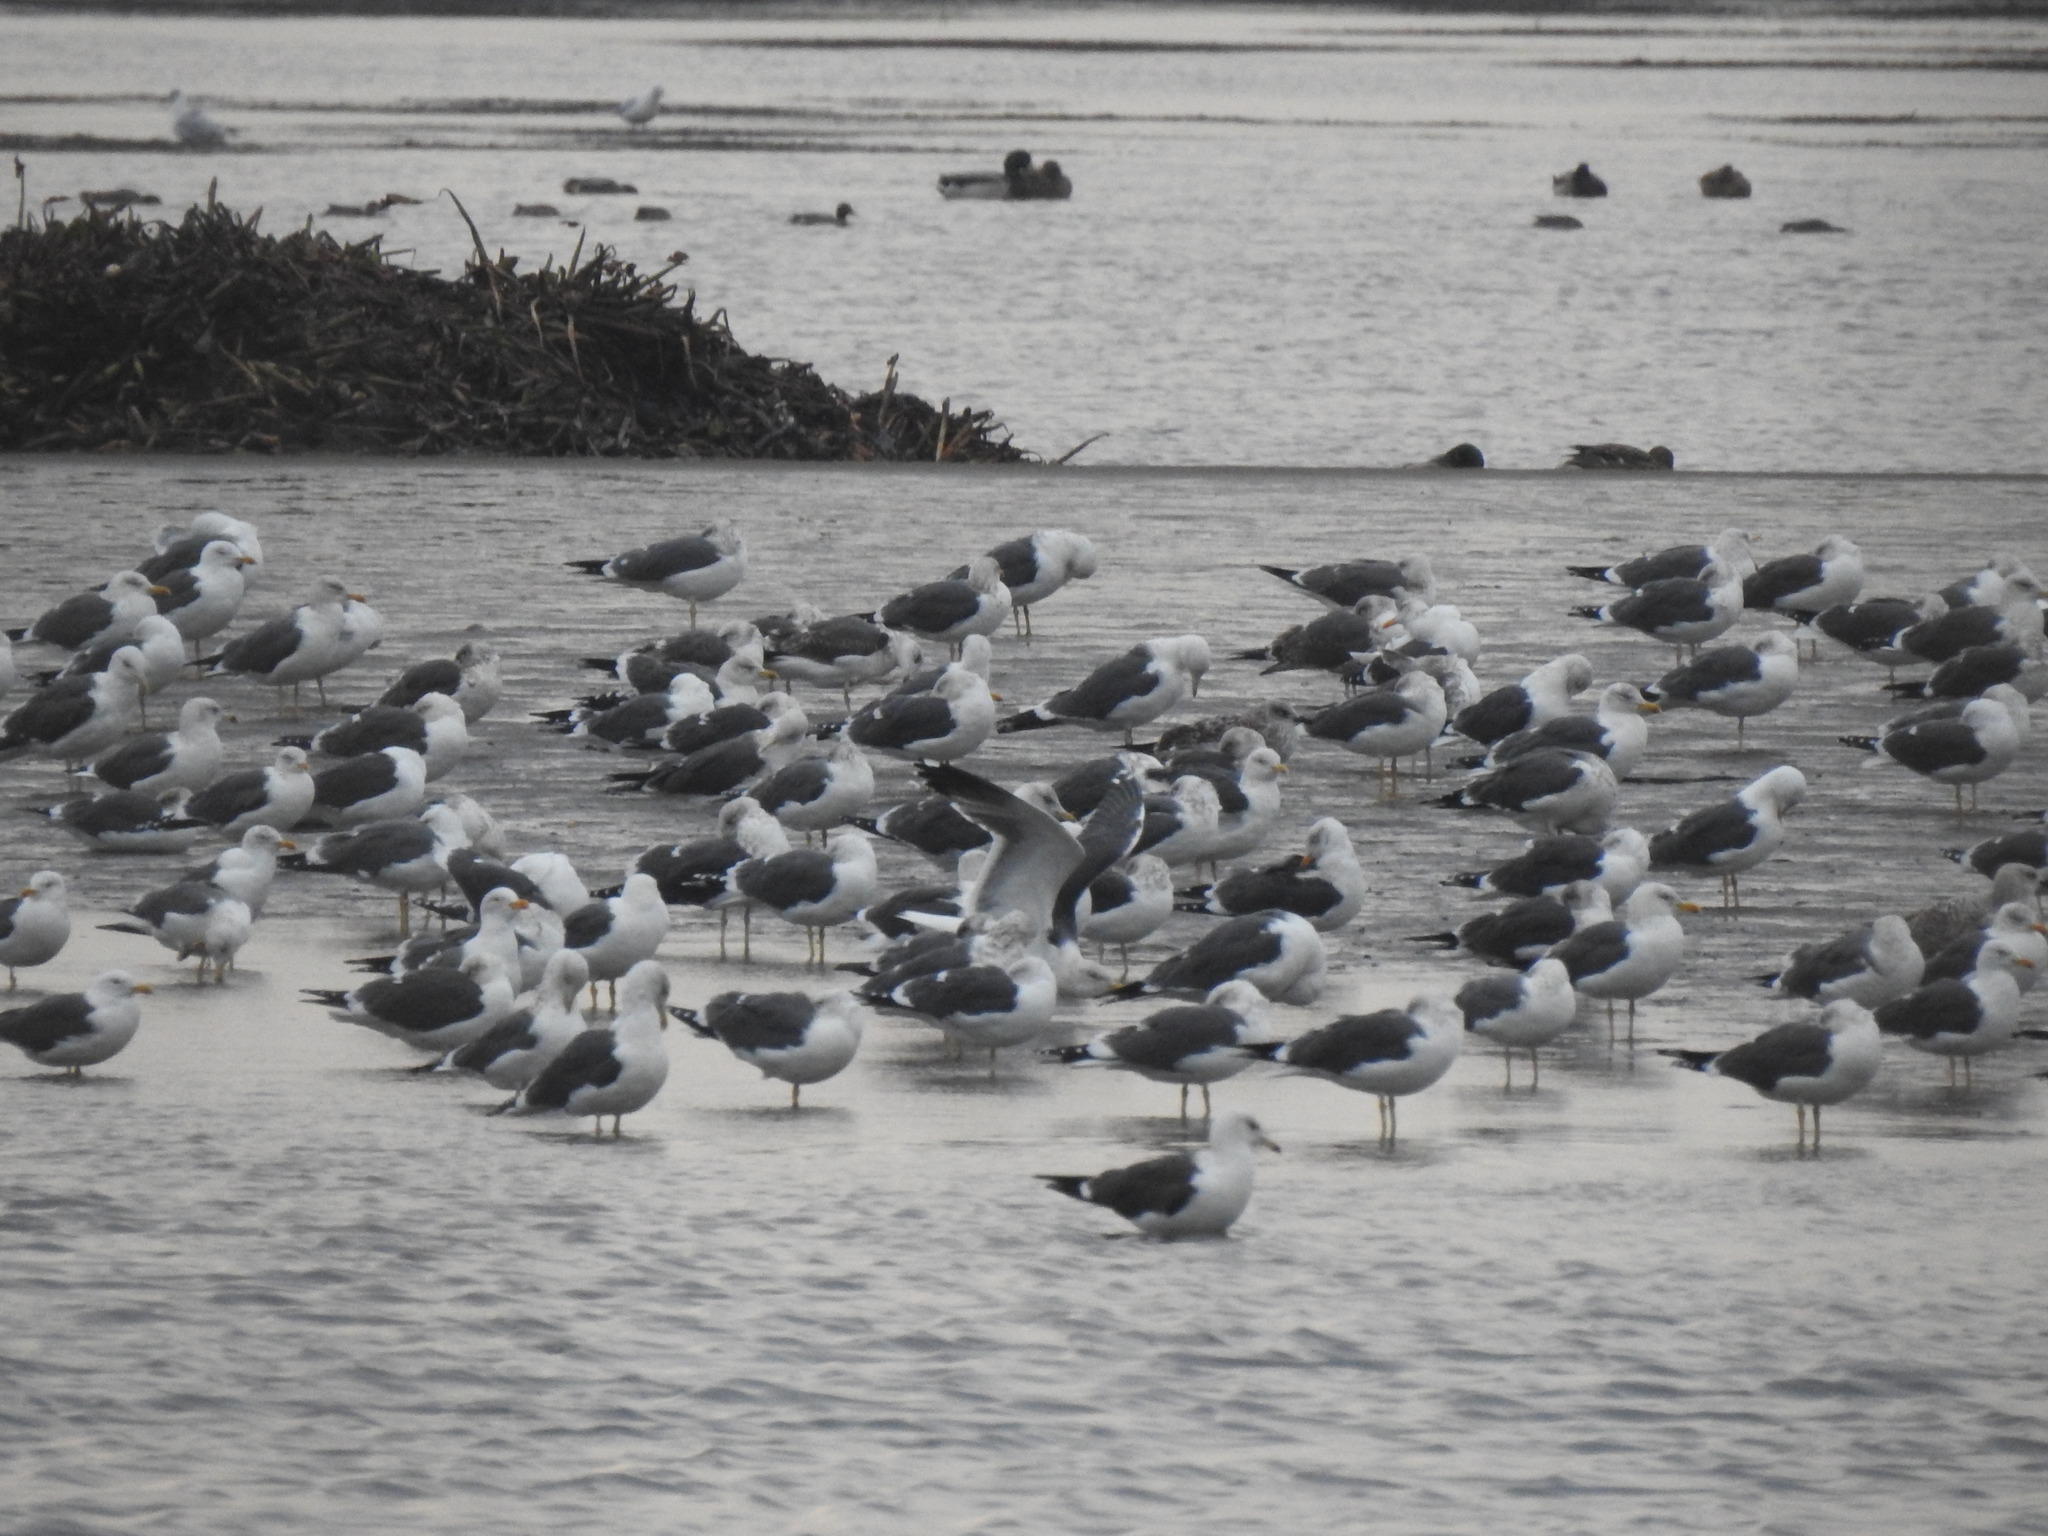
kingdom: Animalia
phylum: Chordata
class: Aves
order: Charadriiformes
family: Laridae
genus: Larus
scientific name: Larus fuscus
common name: Lesser black-backed gull
